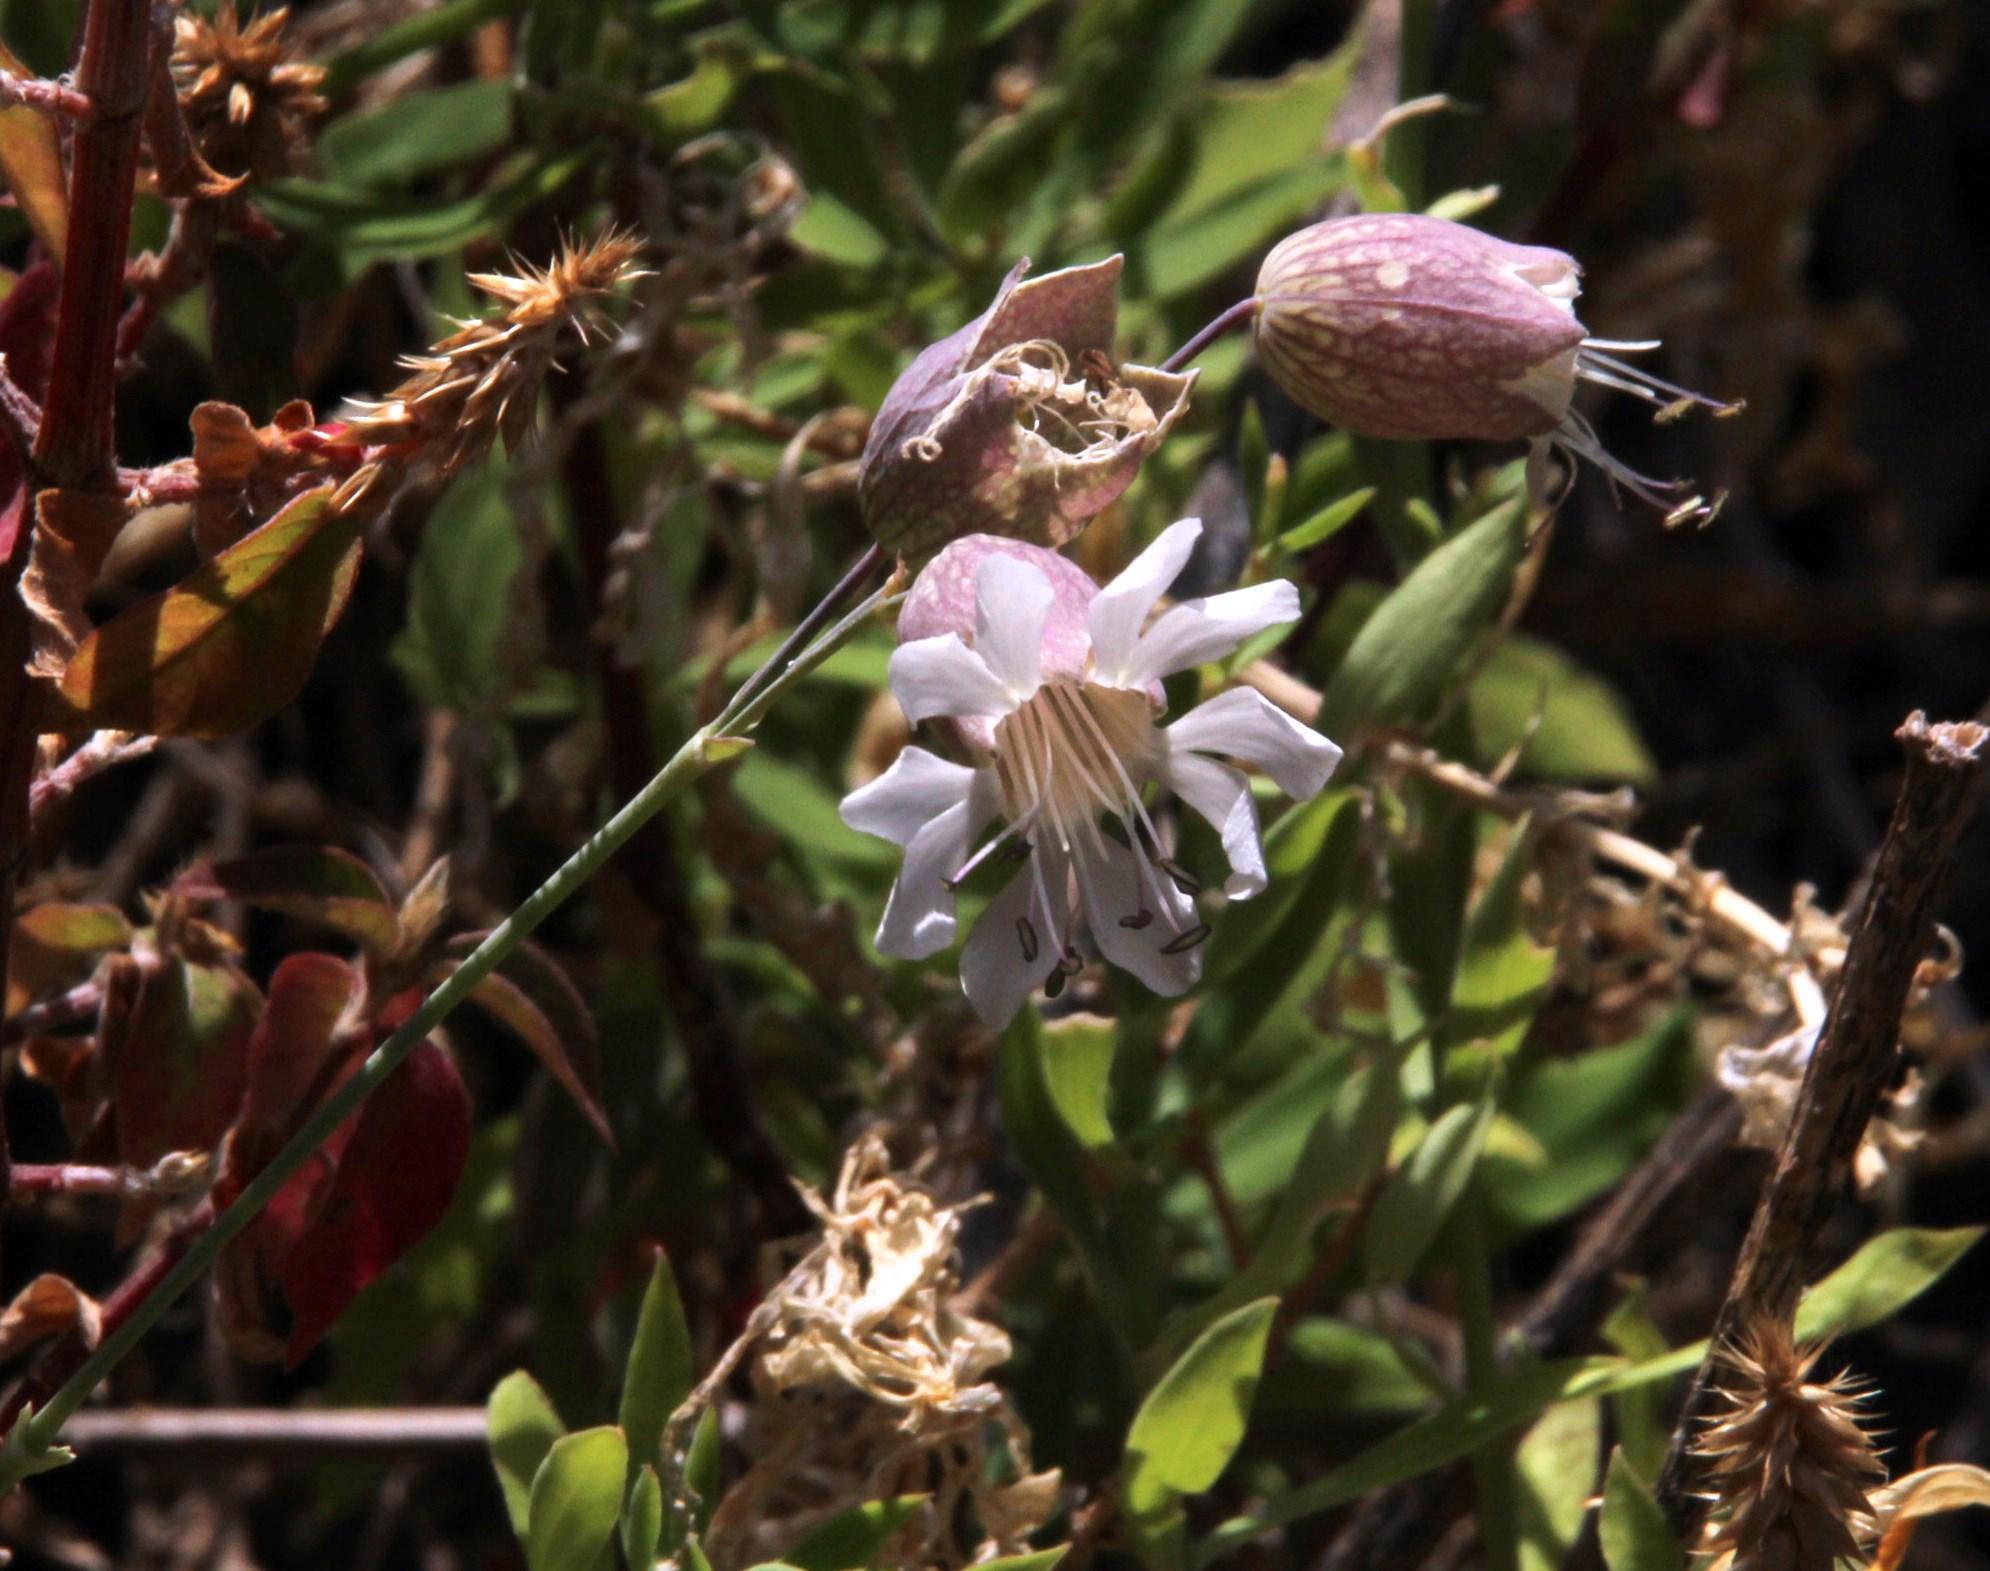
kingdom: Plantae
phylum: Tracheophyta
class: Magnoliopsida
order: Caryophyllales
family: Caryophyllaceae
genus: Silene
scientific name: Silene uniflora
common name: Sea campion
